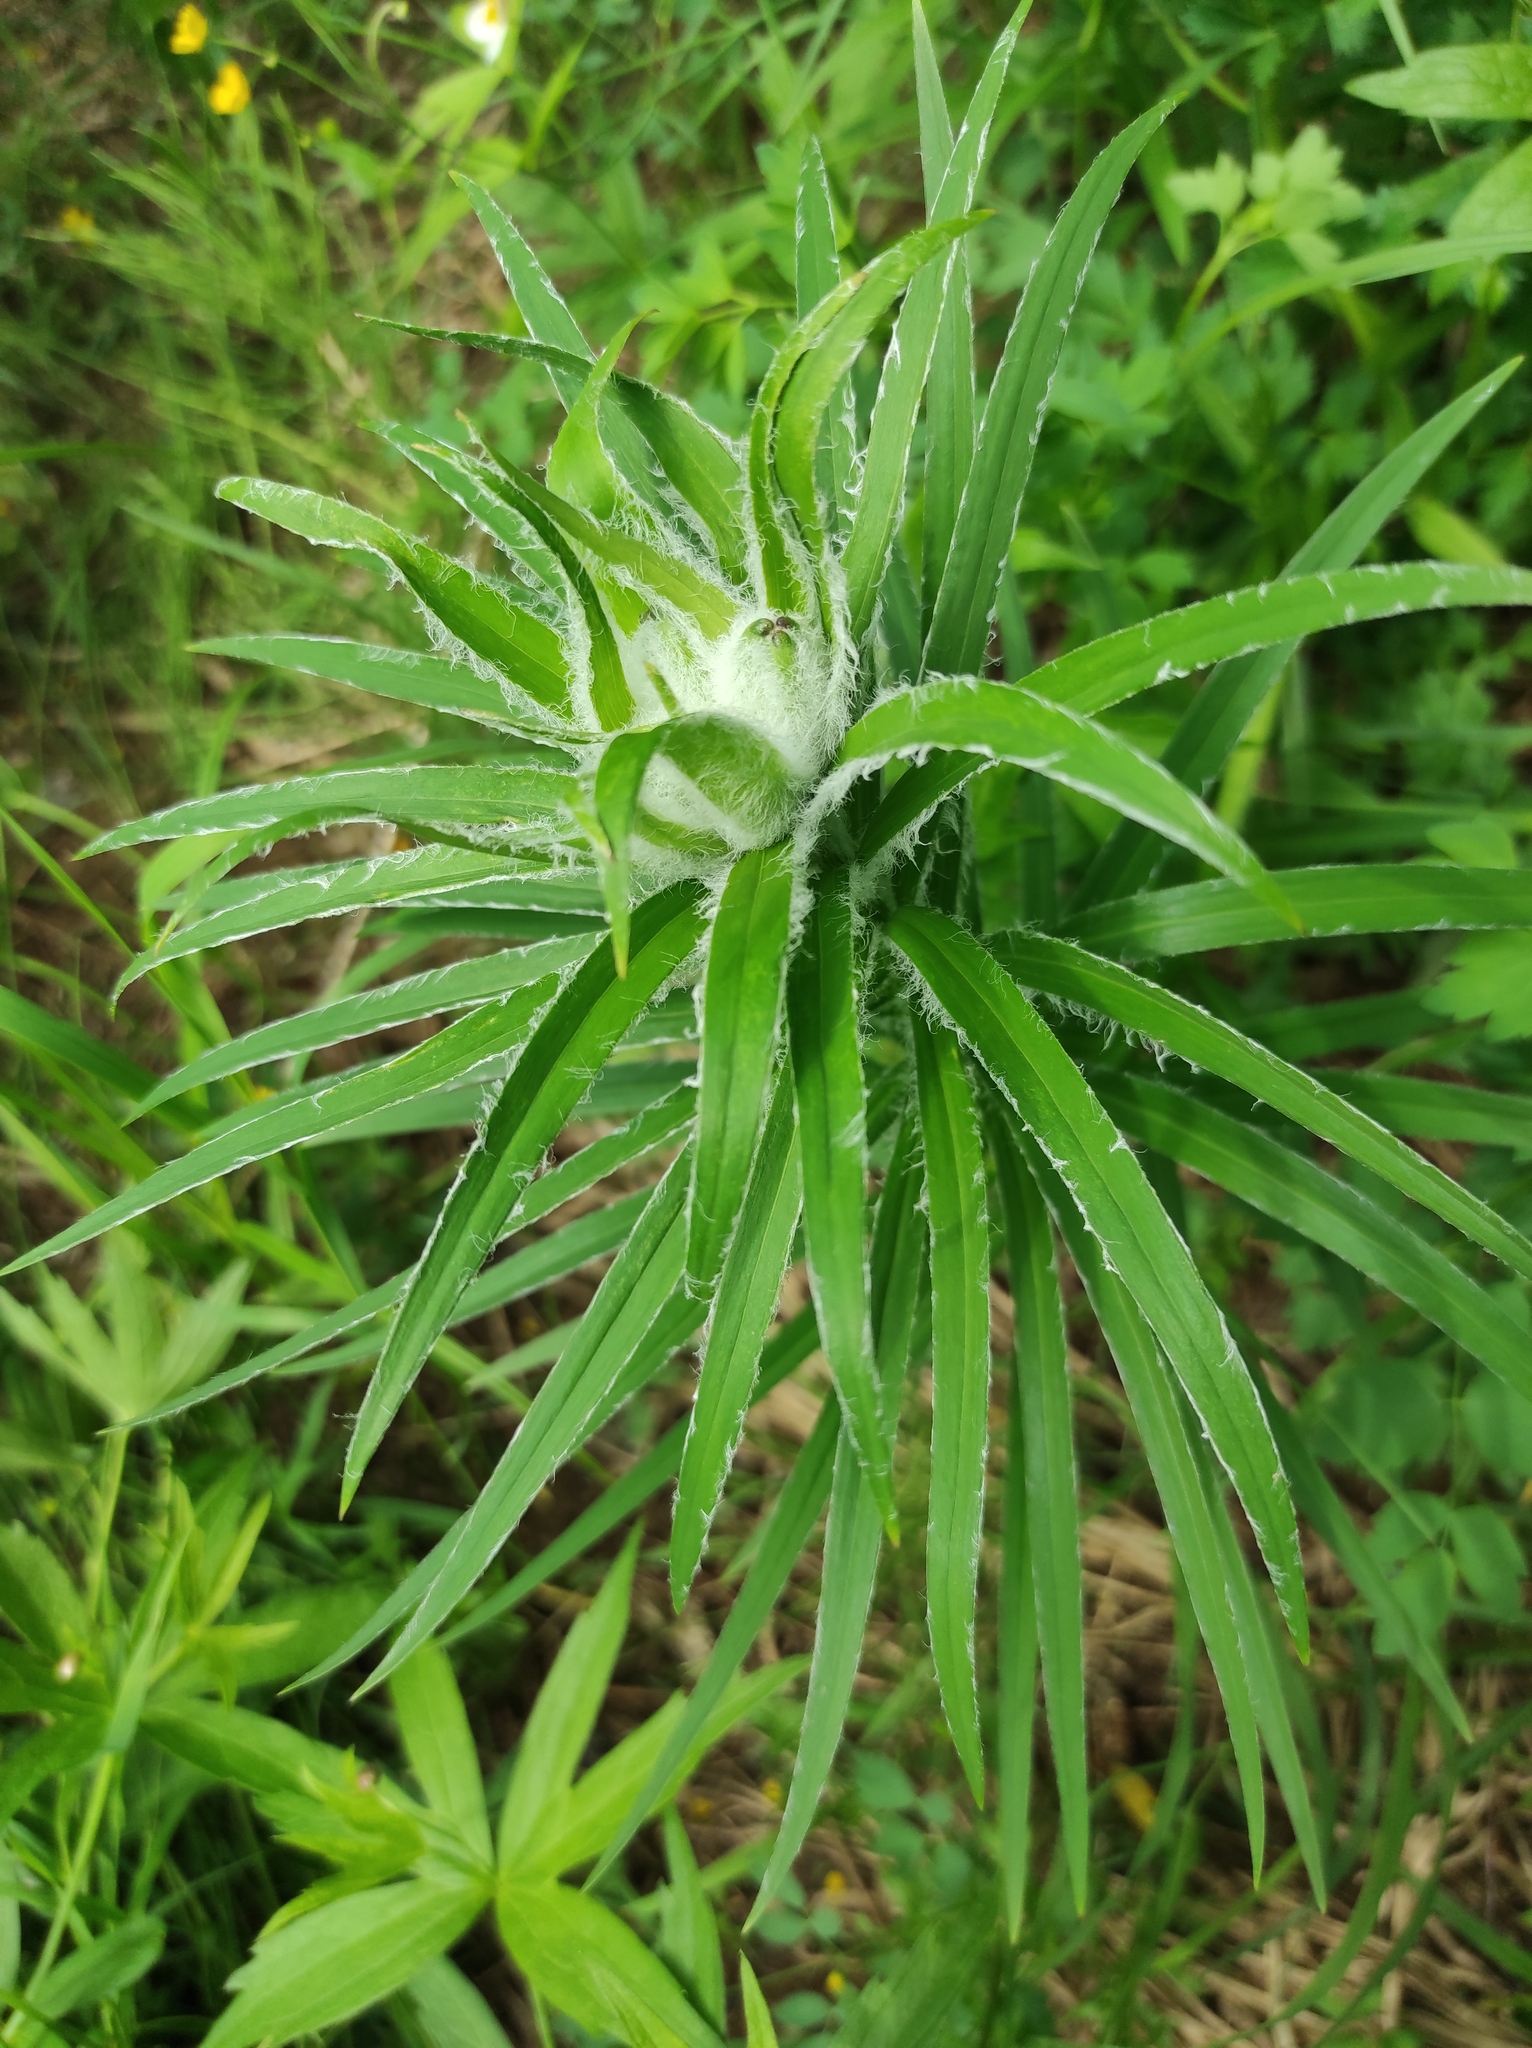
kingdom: Plantae
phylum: Tracheophyta
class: Liliopsida
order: Liliales
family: Liliaceae
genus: Lilium
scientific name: Lilium pensylvanicum
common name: Candlestick lily
